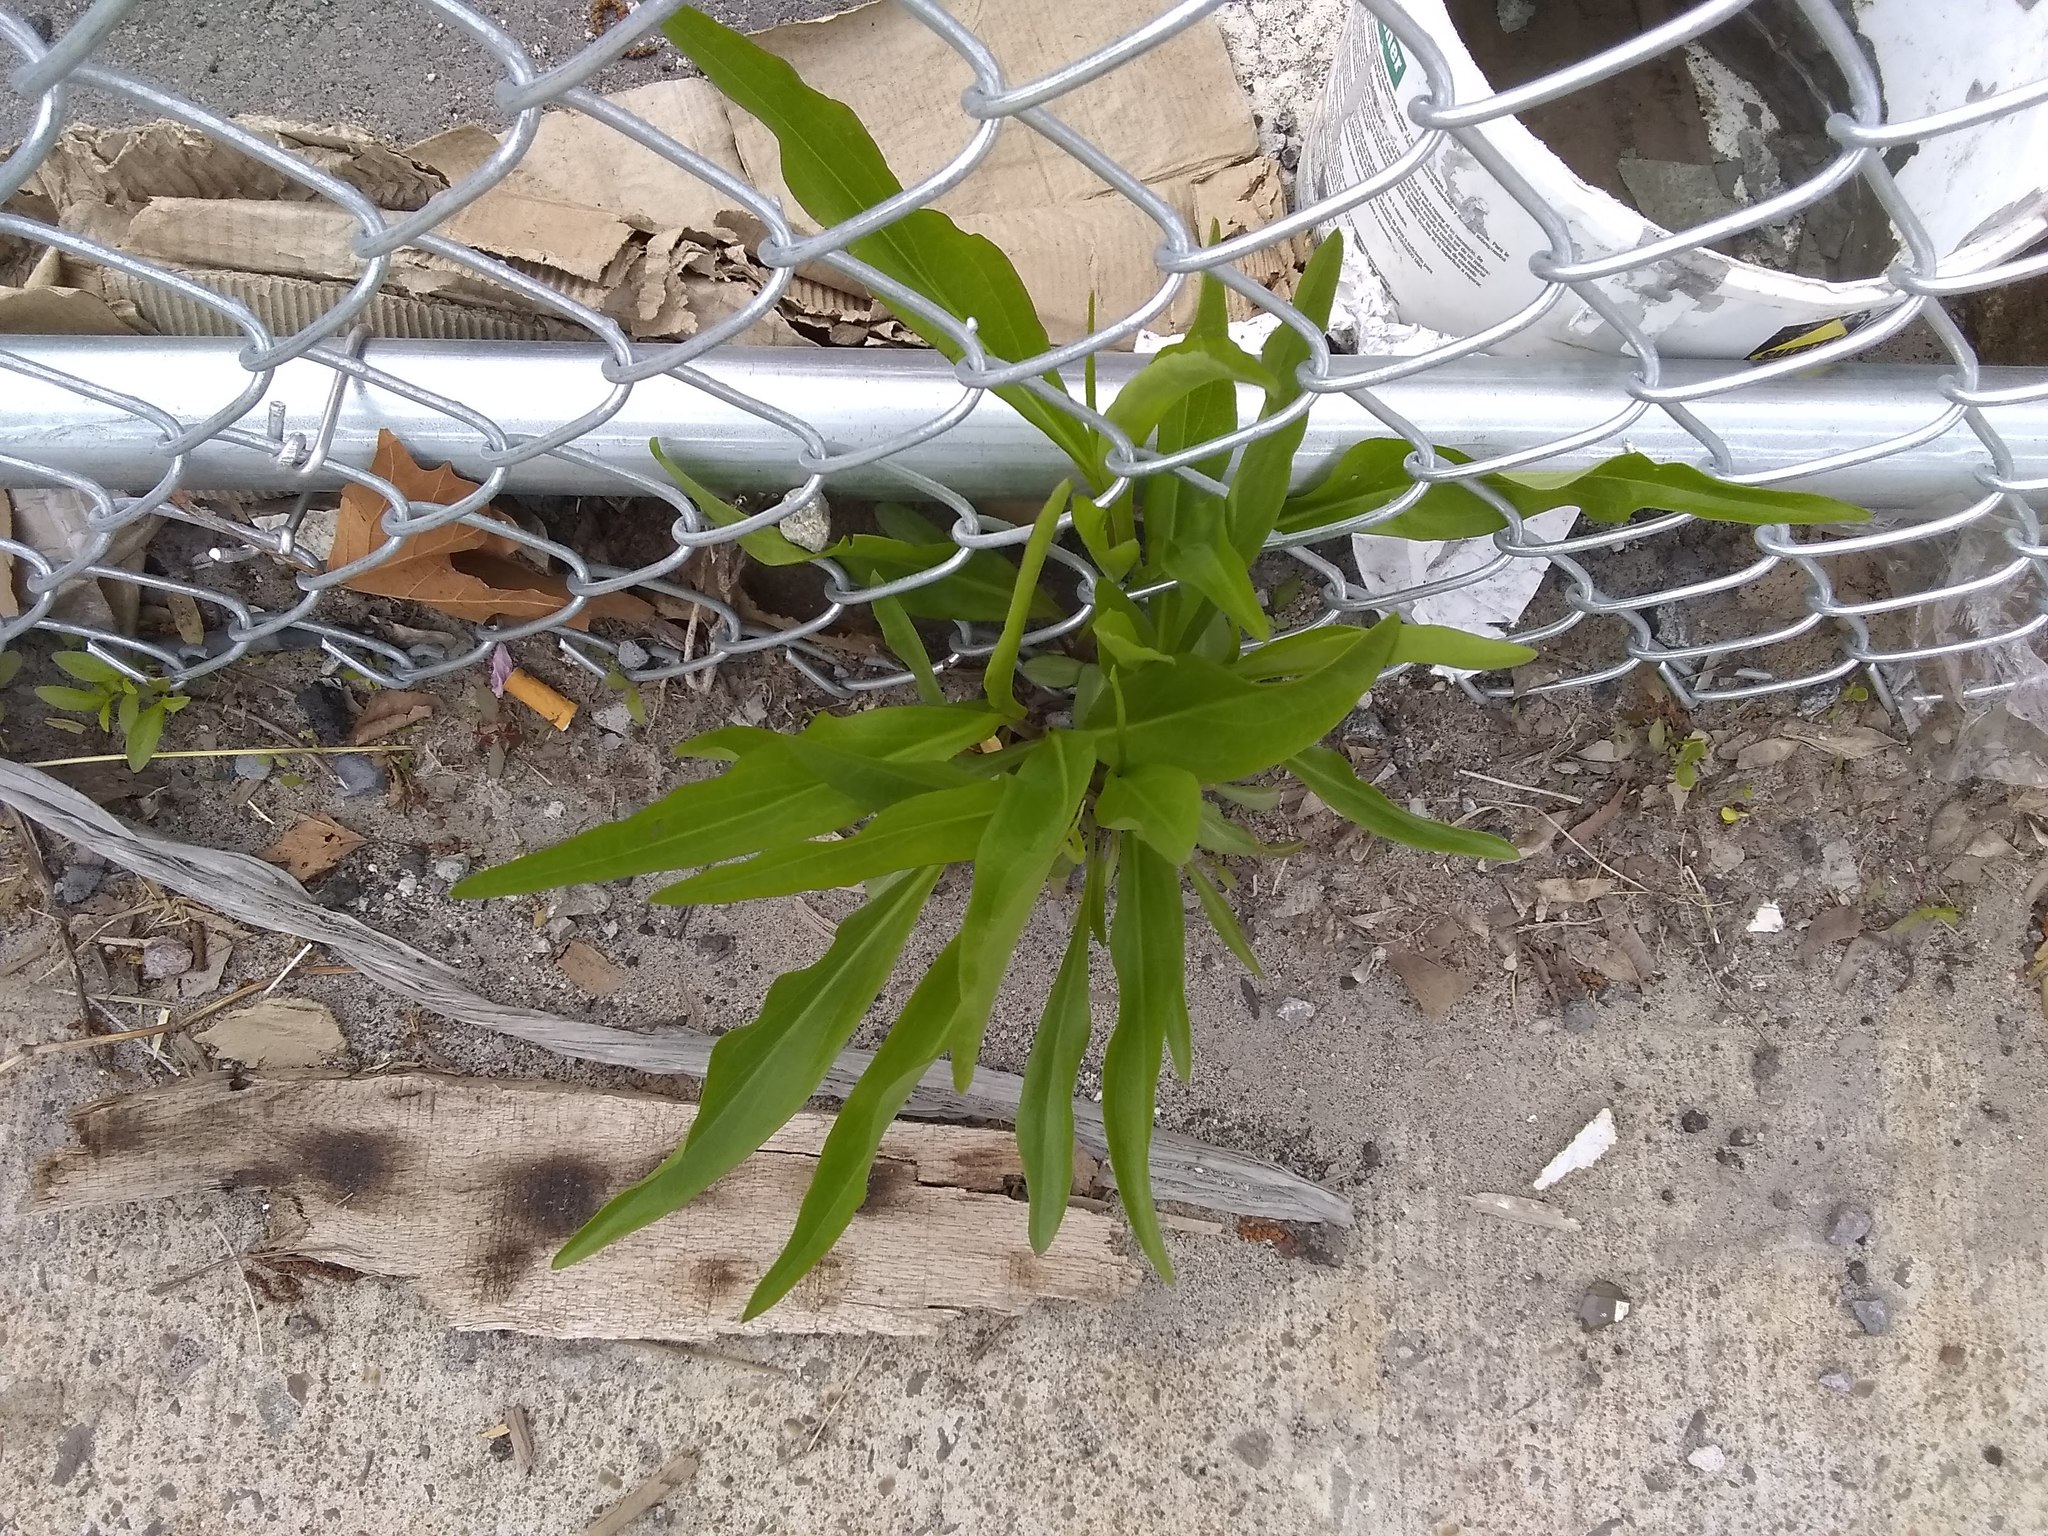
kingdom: Plantae
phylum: Tracheophyta
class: Magnoliopsida
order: Asterales
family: Asteraceae
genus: Solidago
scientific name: Solidago sempervirens
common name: Salt-marsh goldenrod
